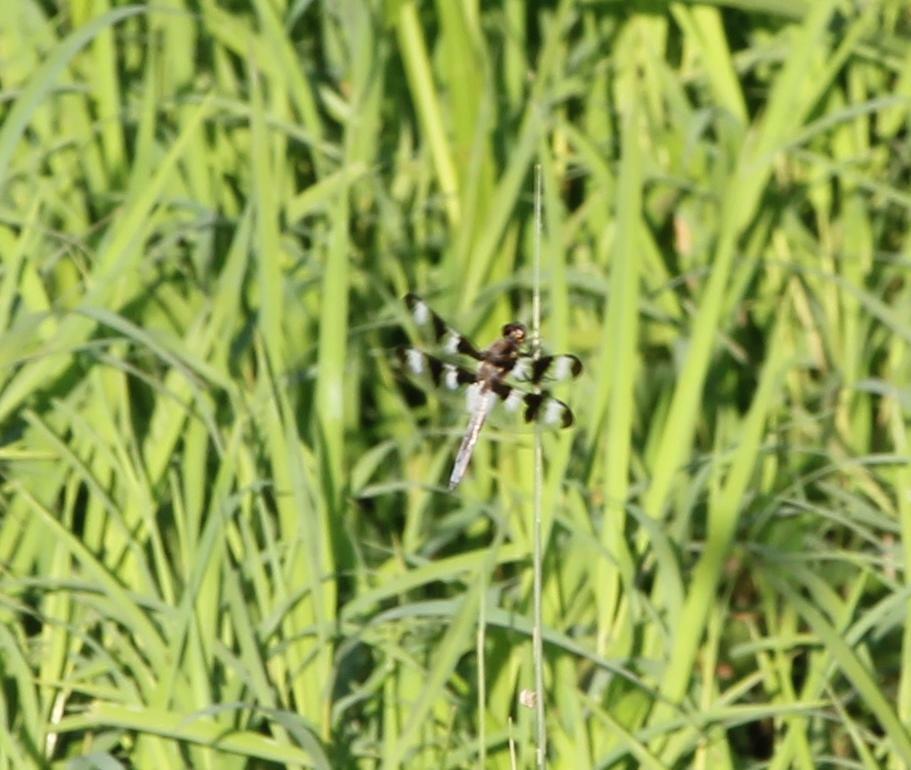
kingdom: Animalia
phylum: Arthropoda
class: Insecta
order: Odonata
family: Libellulidae
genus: Libellula
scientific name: Libellula pulchella
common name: Twelve-spotted skimmer
